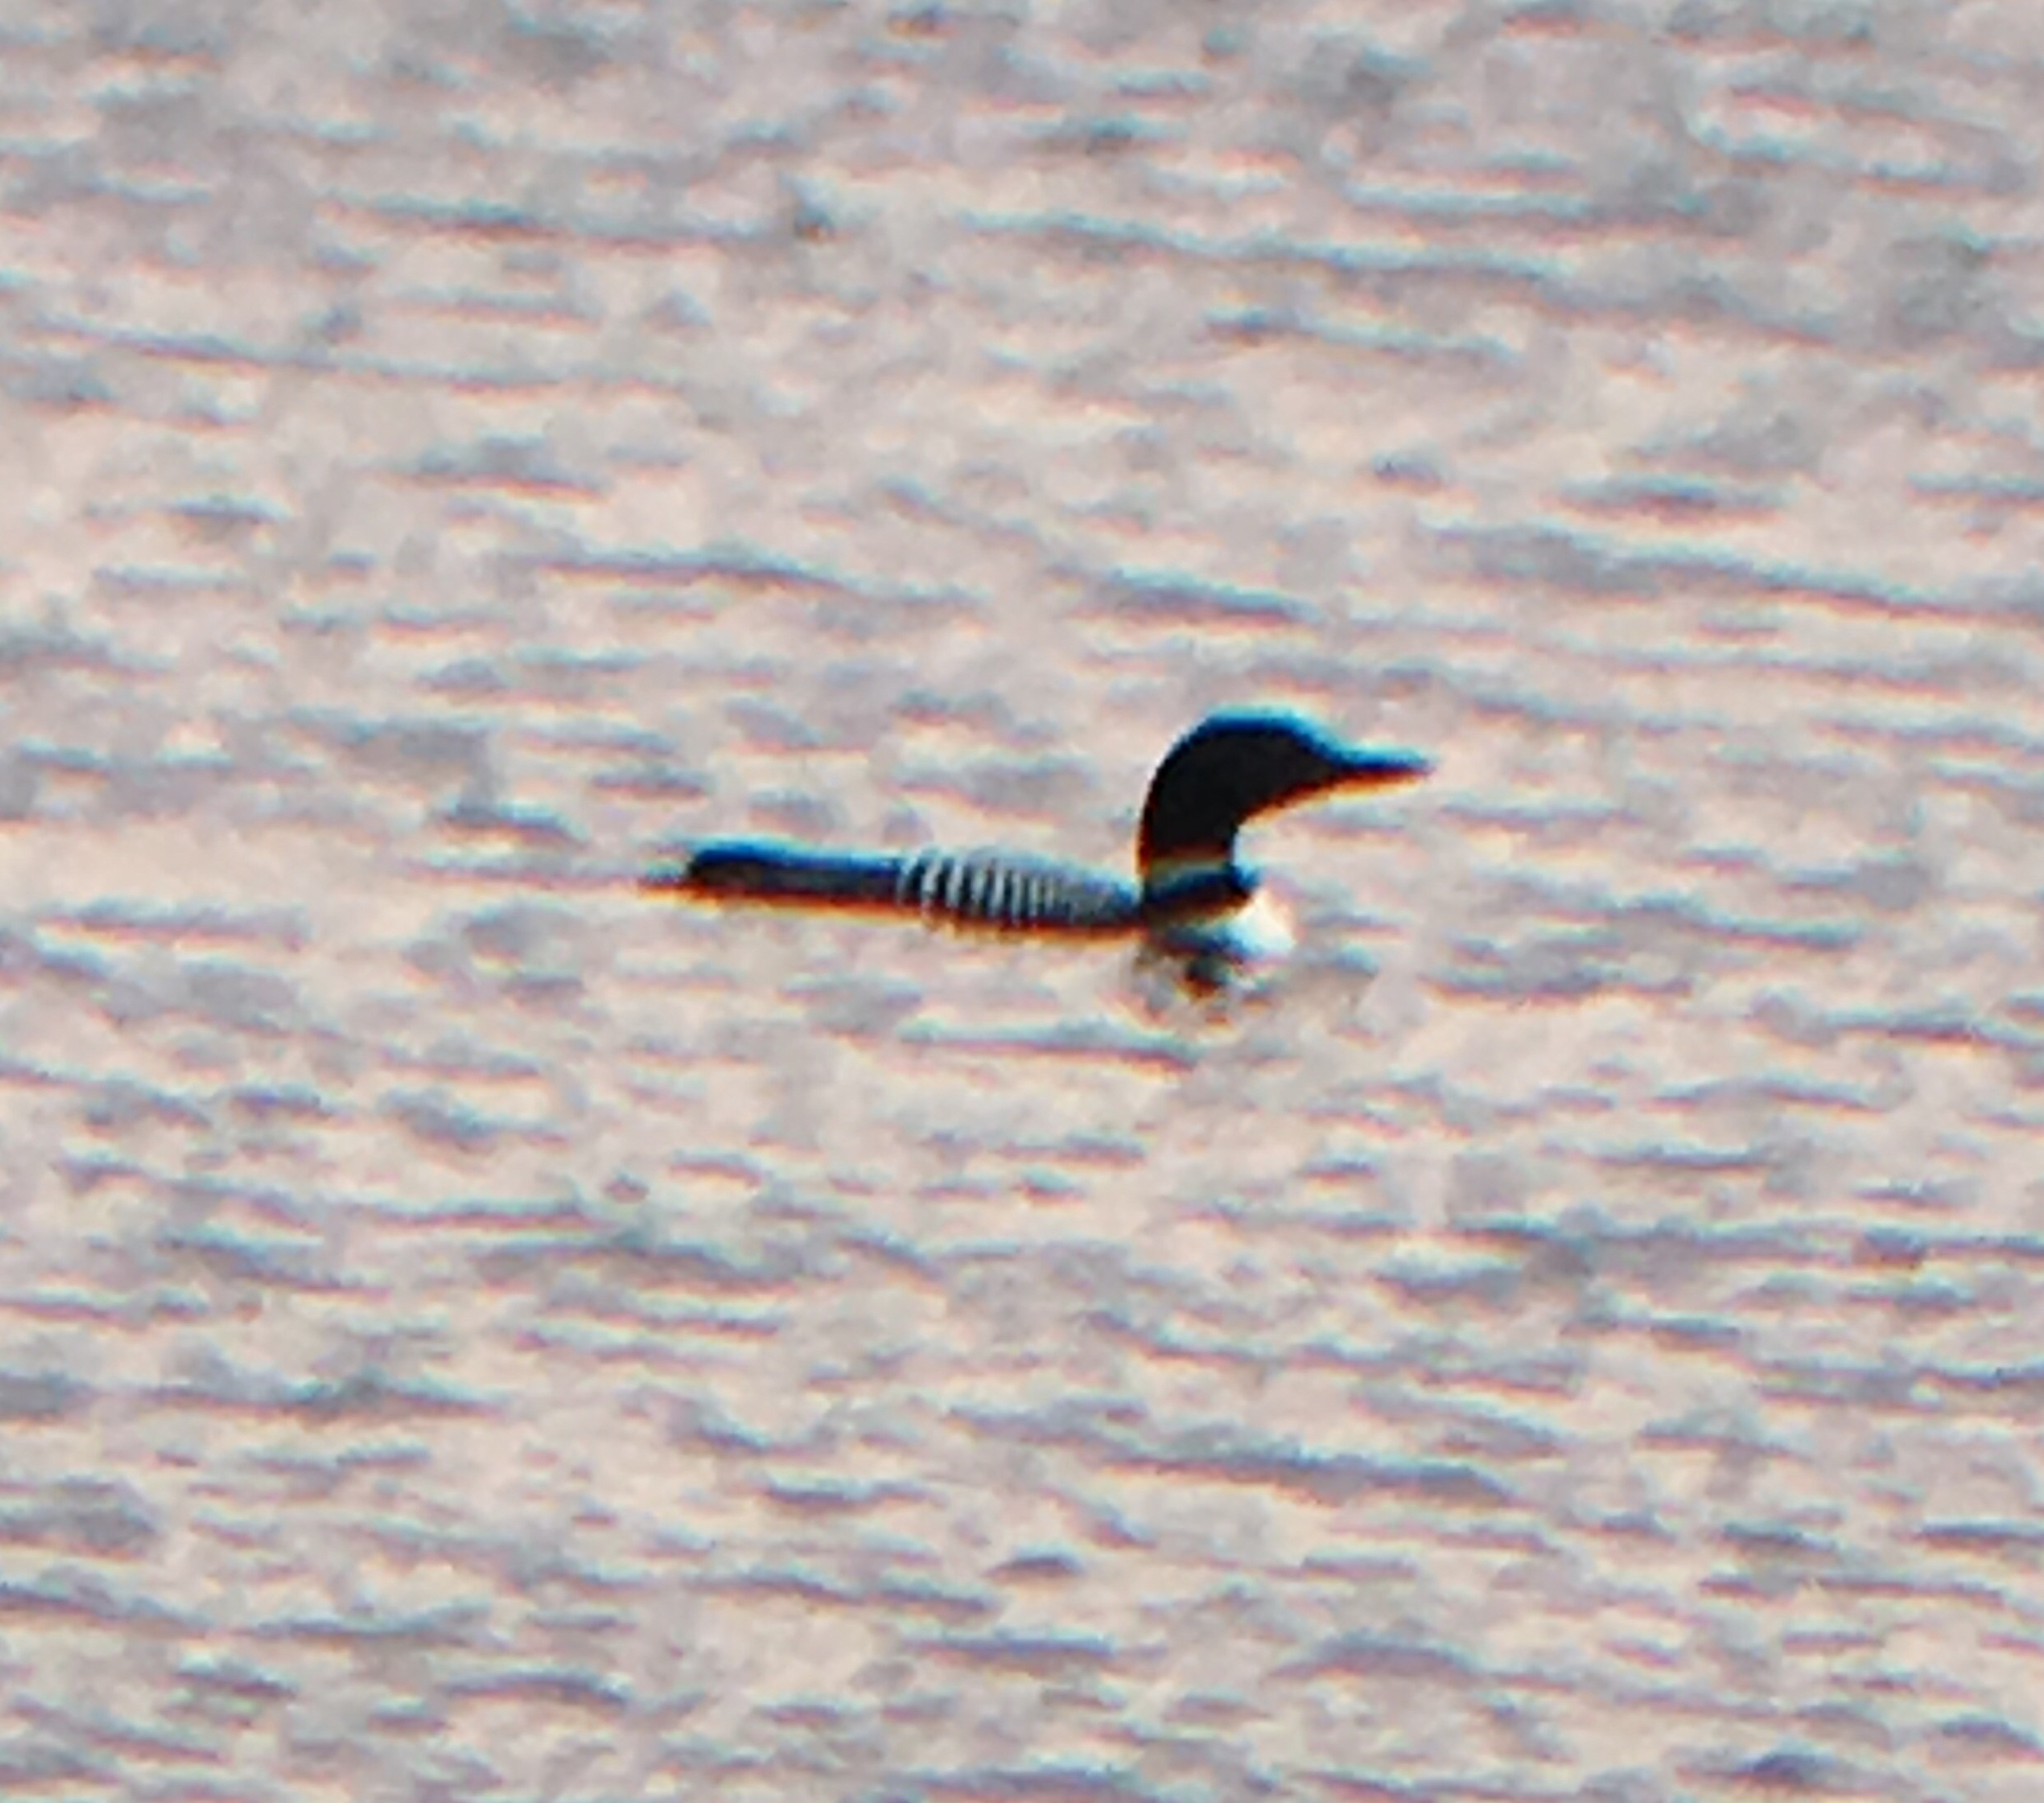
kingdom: Animalia
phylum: Chordata
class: Aves
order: Gaviiformes
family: Gaviidae
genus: Gavia
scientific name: Gavia immer
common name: Common loon
